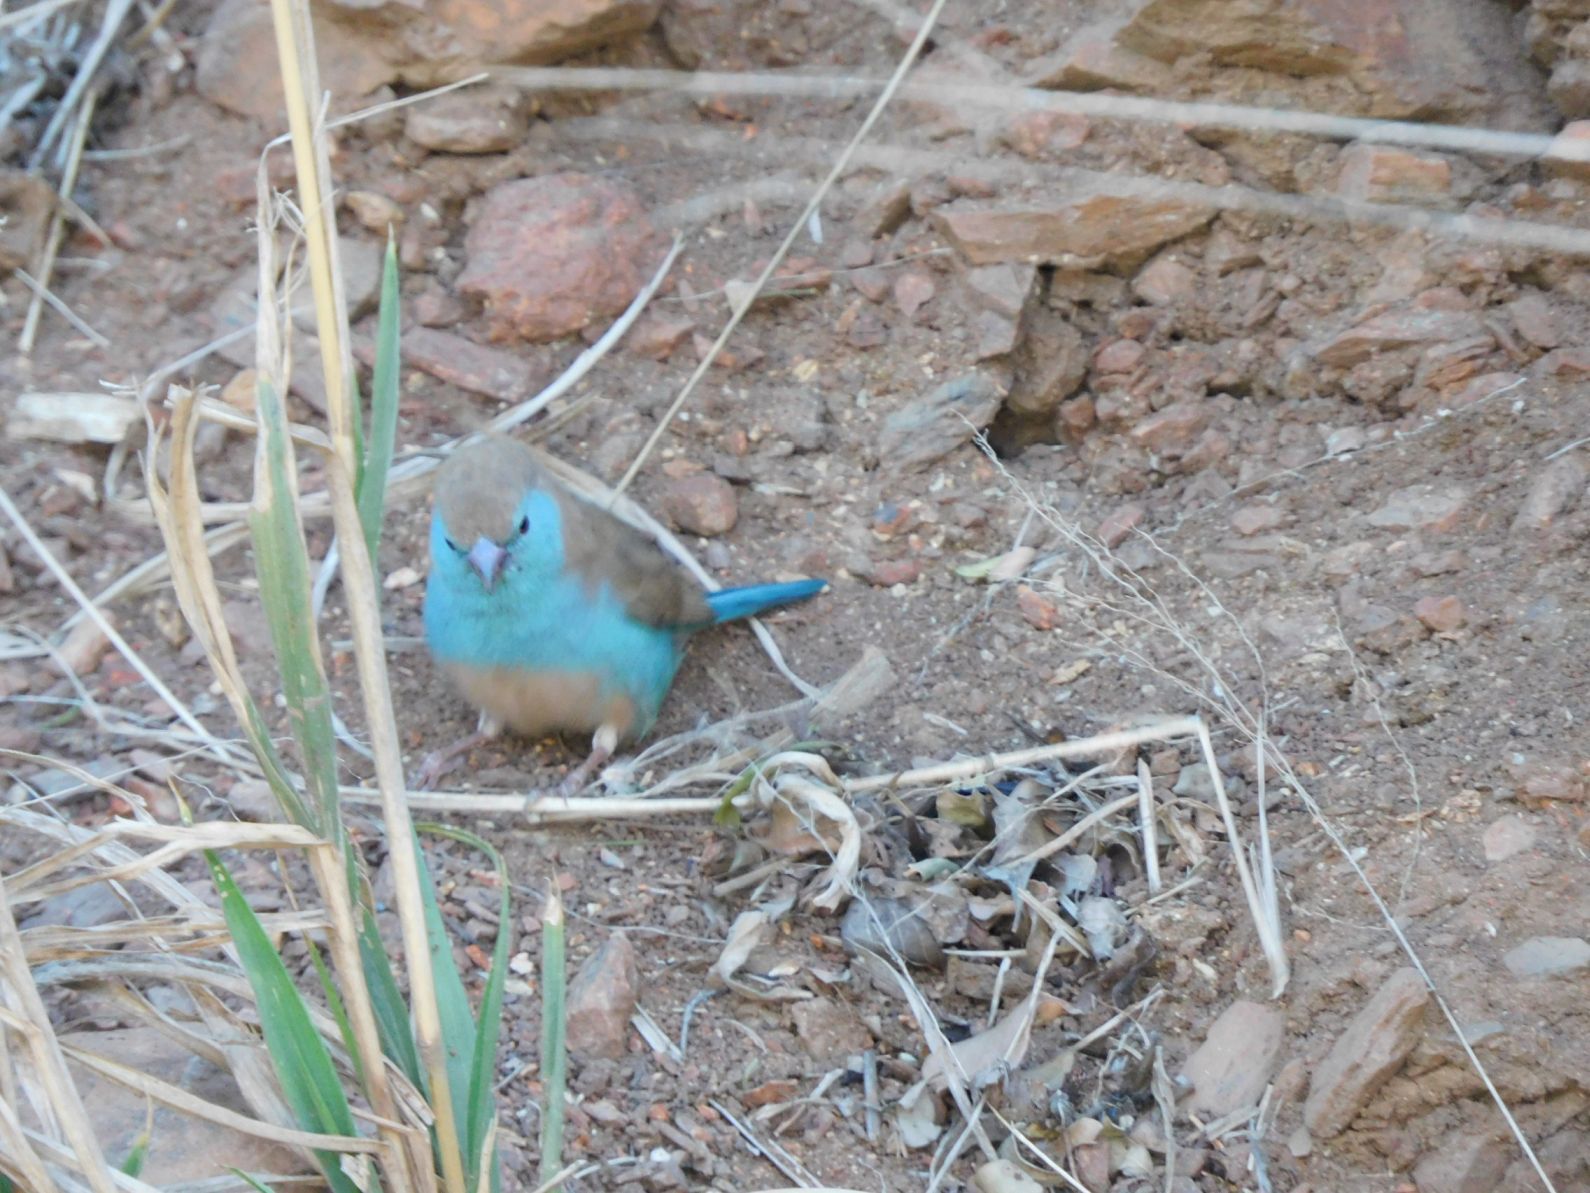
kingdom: Animalia
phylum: Chordata
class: Aves
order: Passeriformes
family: Estrildidae
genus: Uraeginthus
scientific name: Uraeginthus angolensis
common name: Blue waxbill
